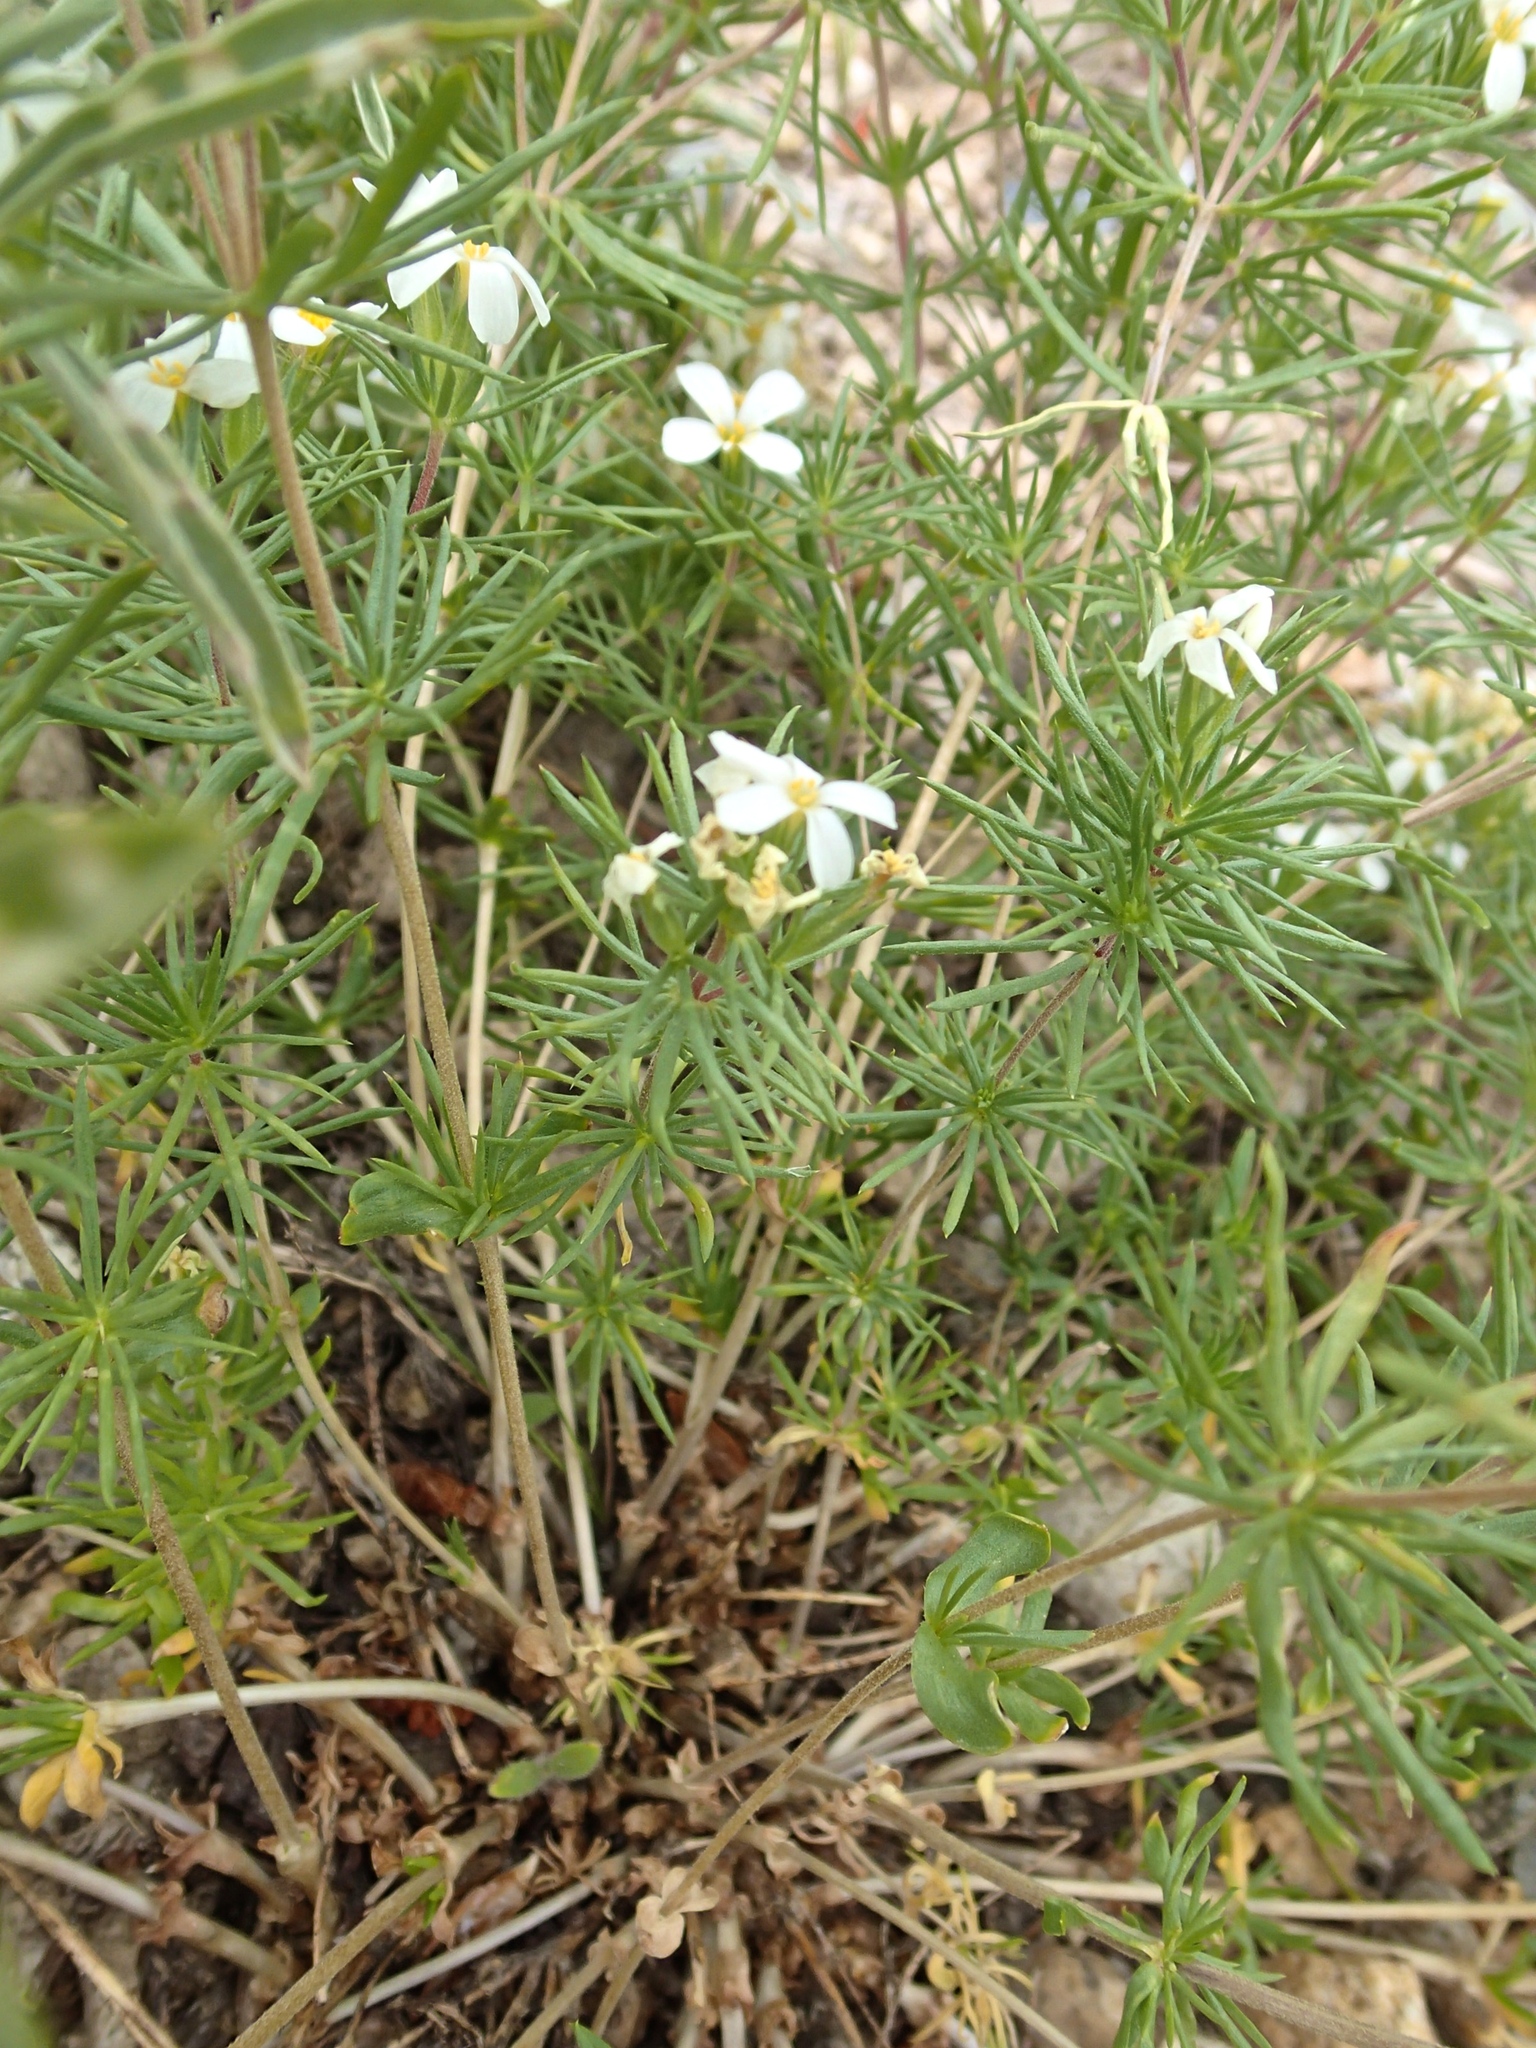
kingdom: Plantae
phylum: Tracheophyta
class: Magnoliopsida
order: Ericales
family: Polemoniaceae
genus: Leptosiphon
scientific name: Leptosiphon nuttallii
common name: Nuttall's linanthus
